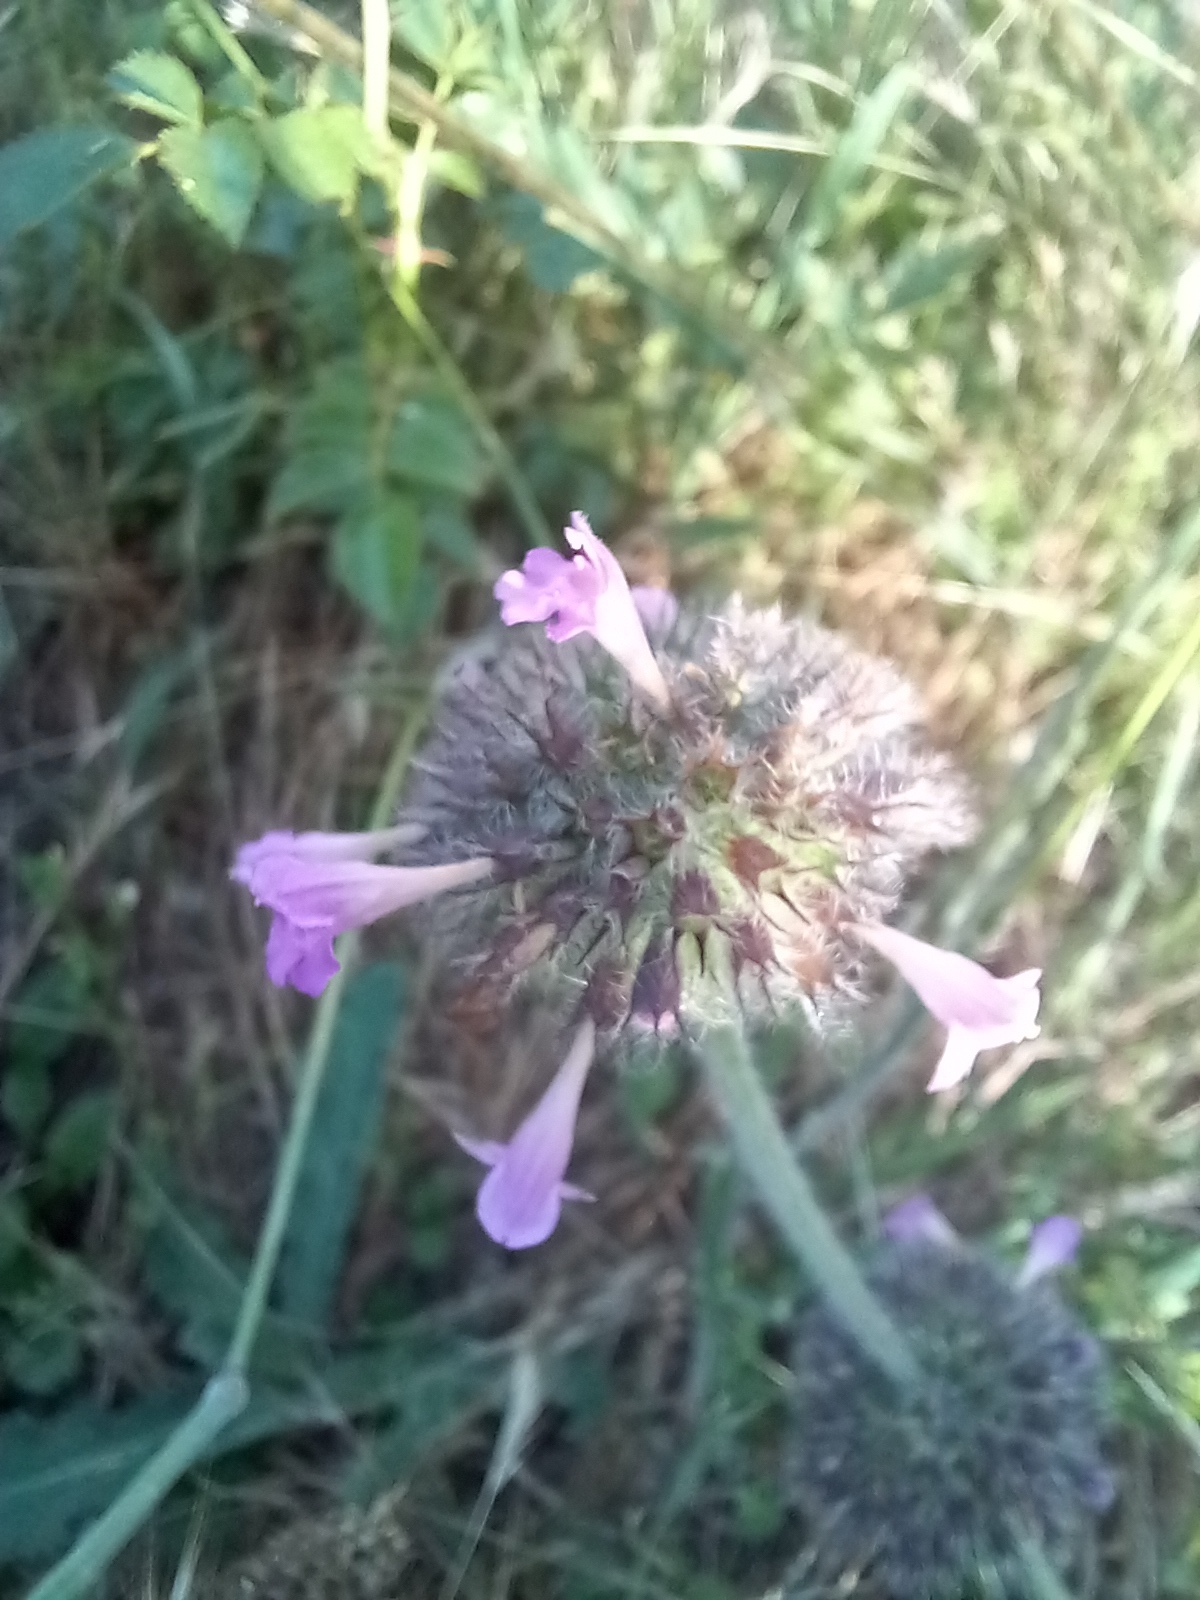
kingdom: Plantae
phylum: Tracheophyta
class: Magnoliopsida
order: Lamiales
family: Lamiaceae
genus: Clinopodium
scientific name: Clinopodium vulgare
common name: Wild basil
